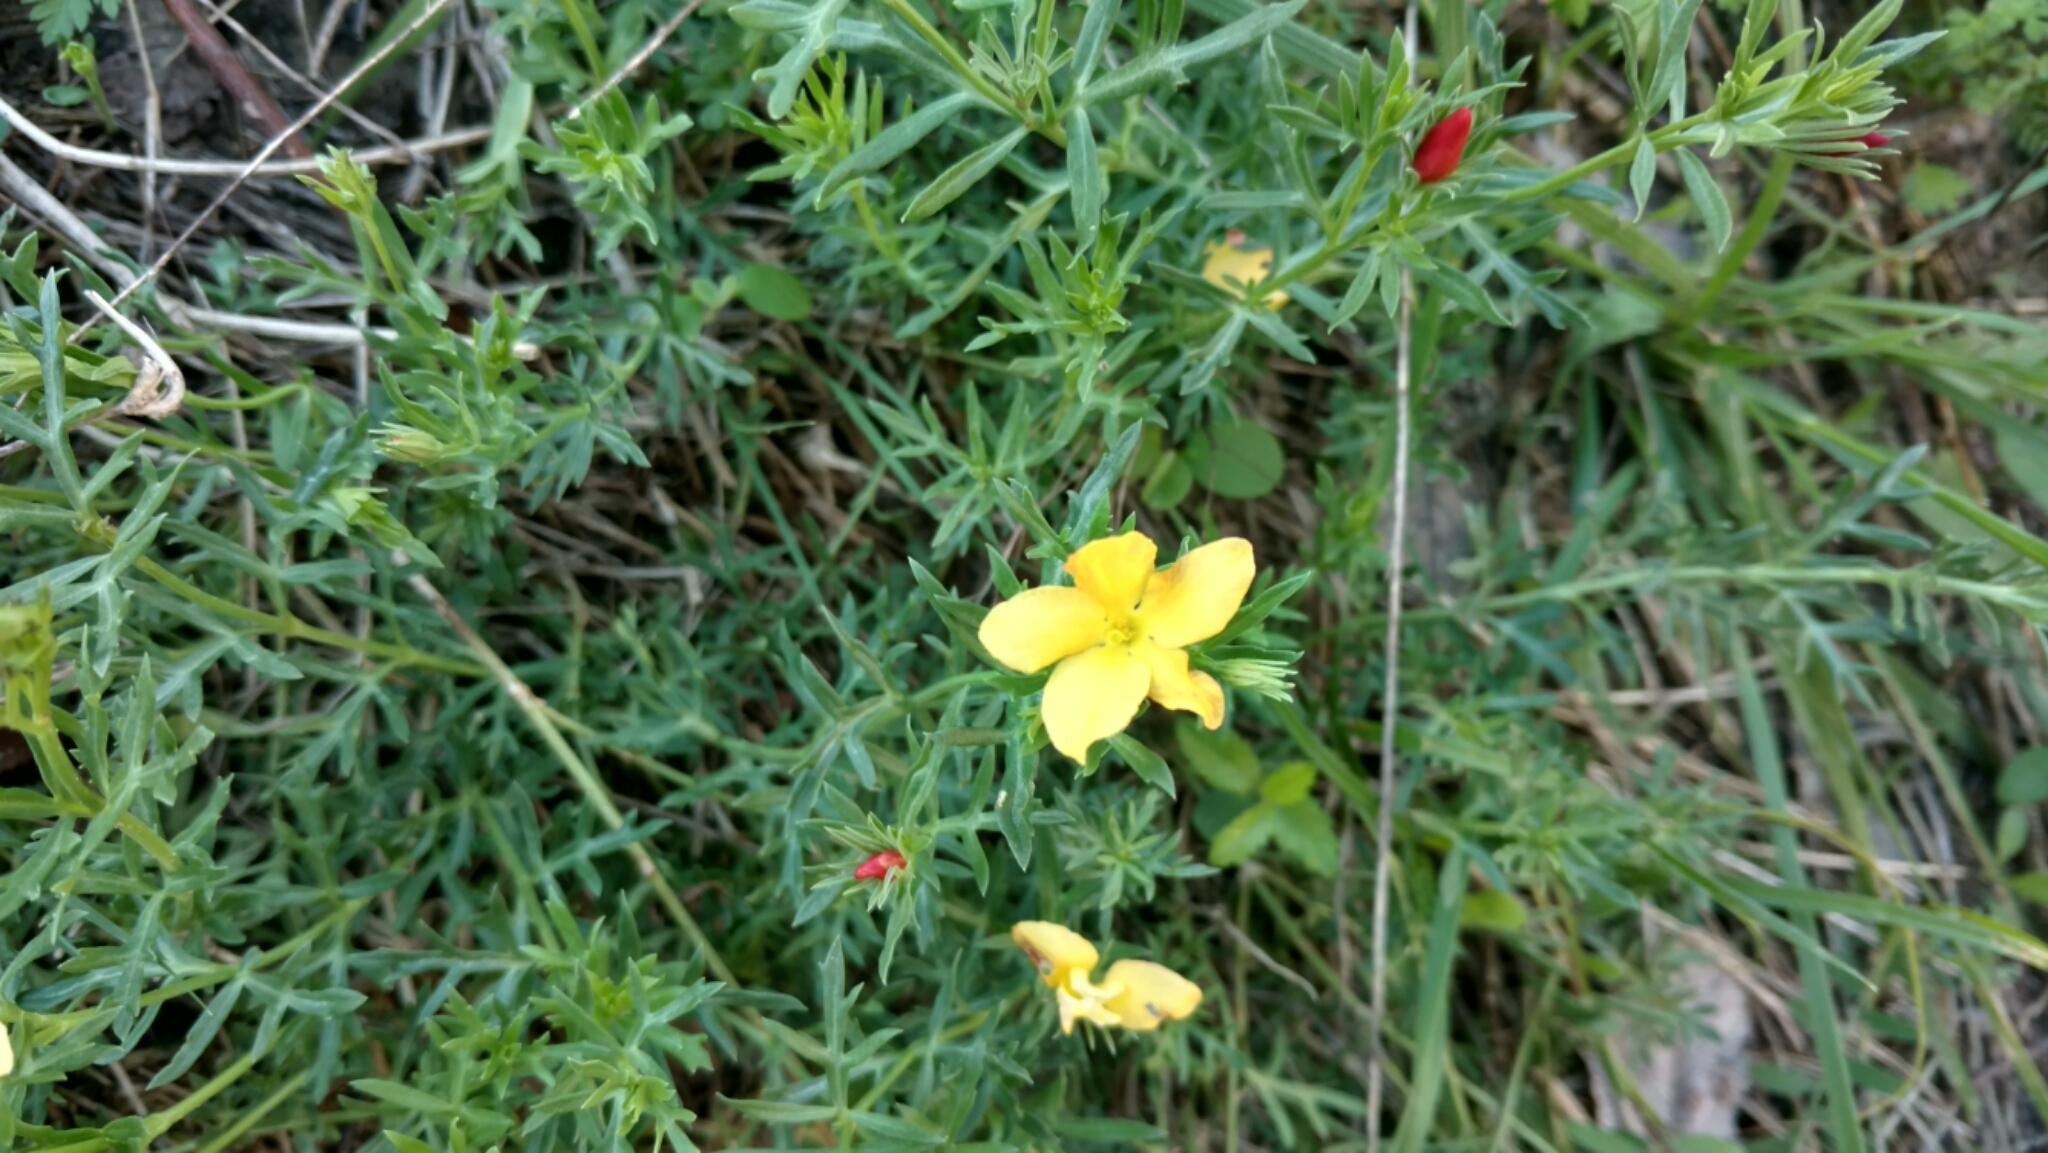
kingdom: Plantae
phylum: Tracheophyta
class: Magnoliopsida
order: Lamiales
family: Oleaceae
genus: Menodora
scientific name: Menodora heterophylla
